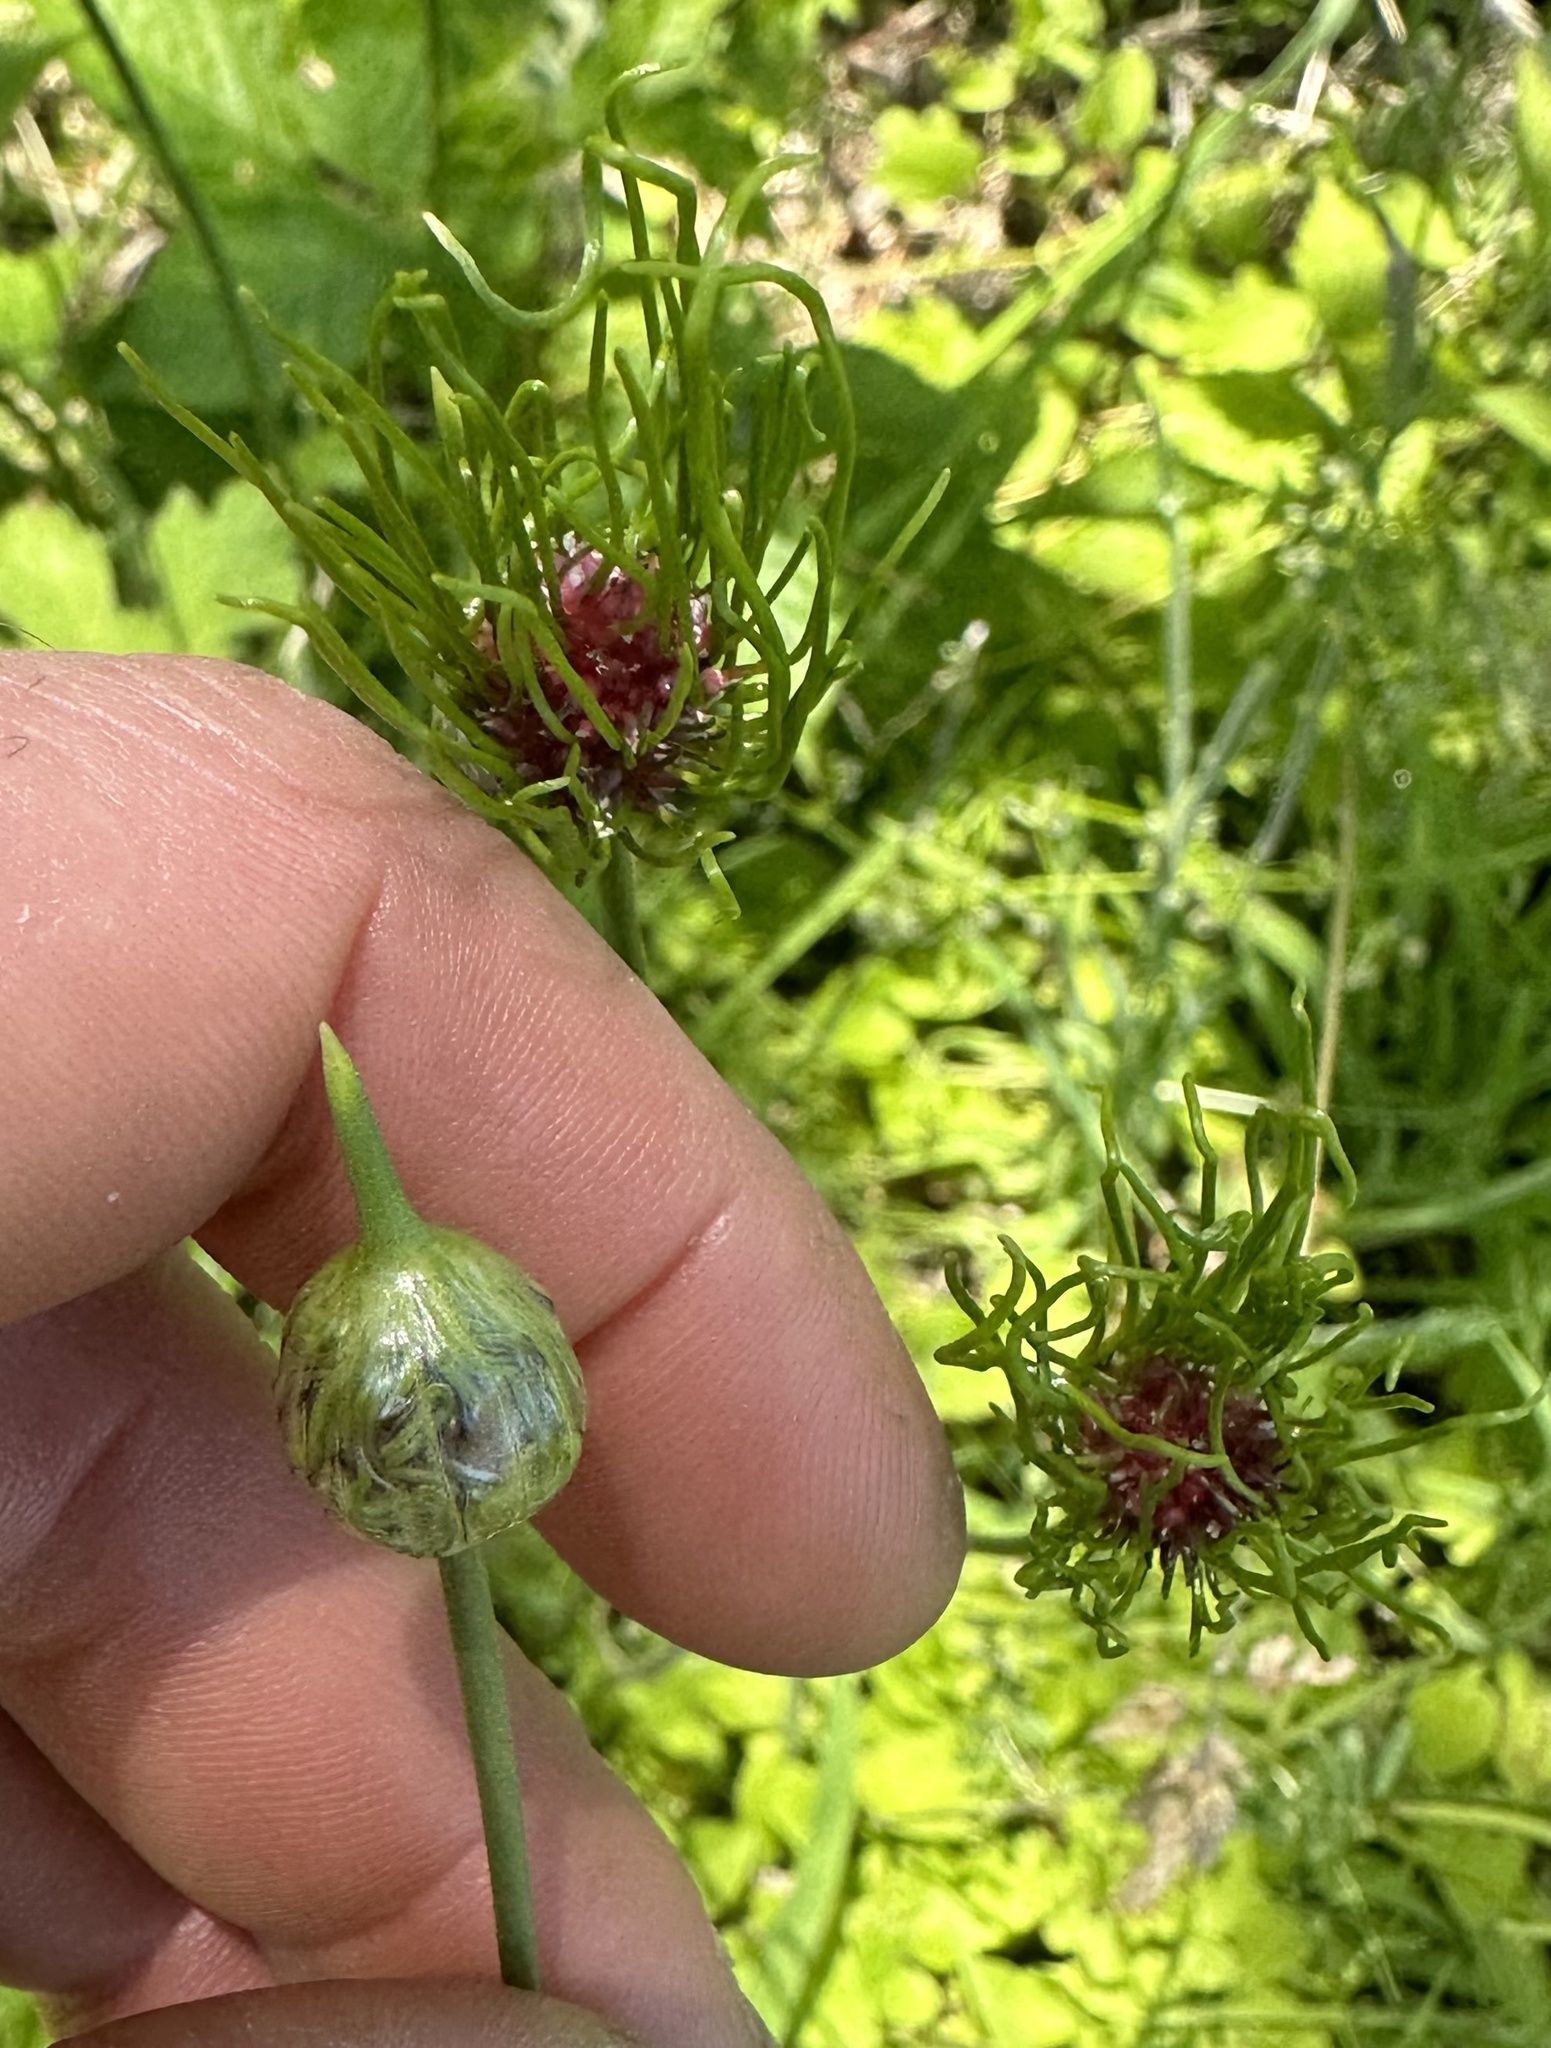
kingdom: Plantae
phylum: Tracheophyta
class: Liliopsida
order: Asparagales
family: Amaryllidaceae
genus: Allium
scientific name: Allium vineale
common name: Crow garlic
